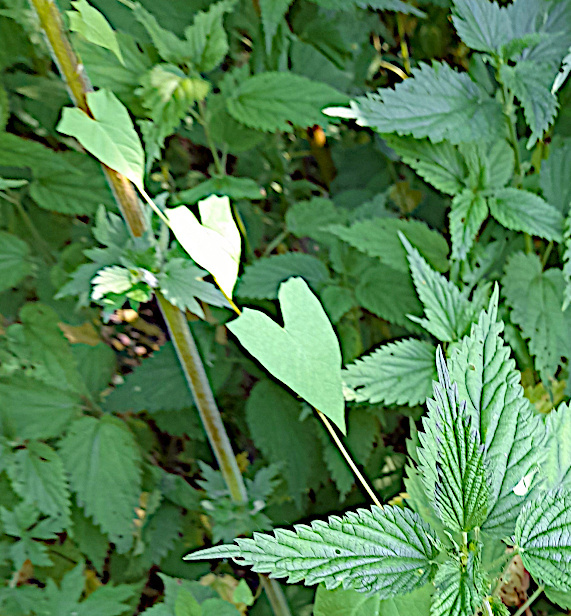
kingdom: Plantae
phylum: Tracheophyta
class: Magnoliopsida
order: Solanales
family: Convolvulaceae
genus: Calystegia
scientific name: Calystegia
